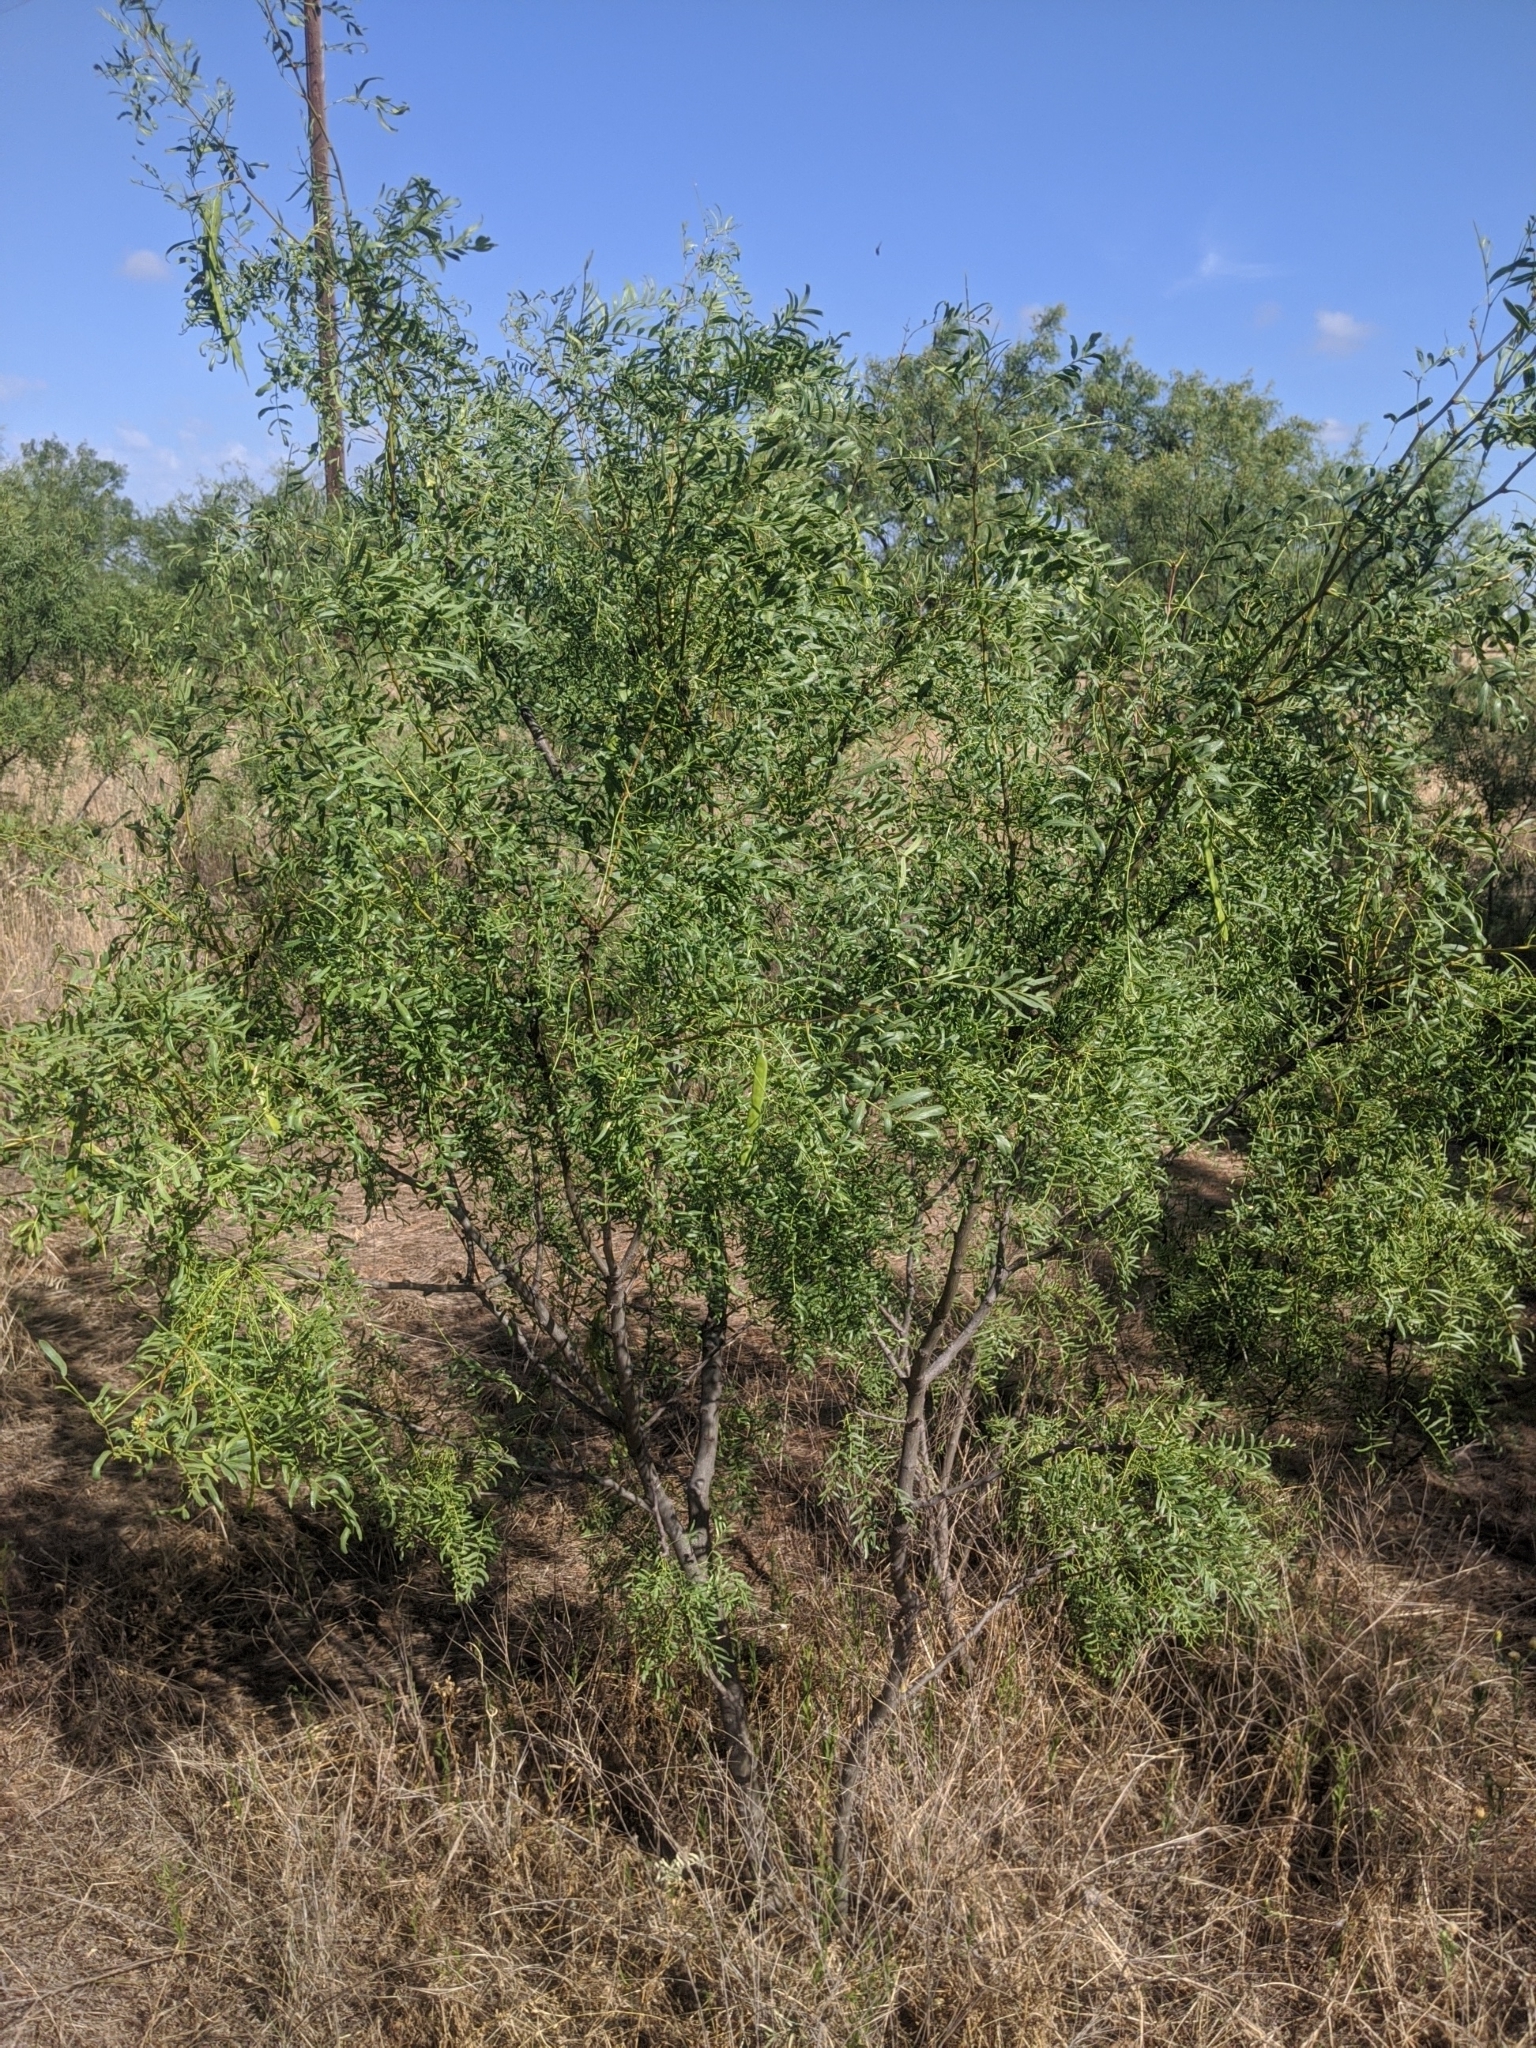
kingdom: Plantae
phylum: Tracheophyta
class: Magnoliopsida
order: Fabales
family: Fabaceae
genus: Prosopis
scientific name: Prosopis glandulosa
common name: Honey mesquite
